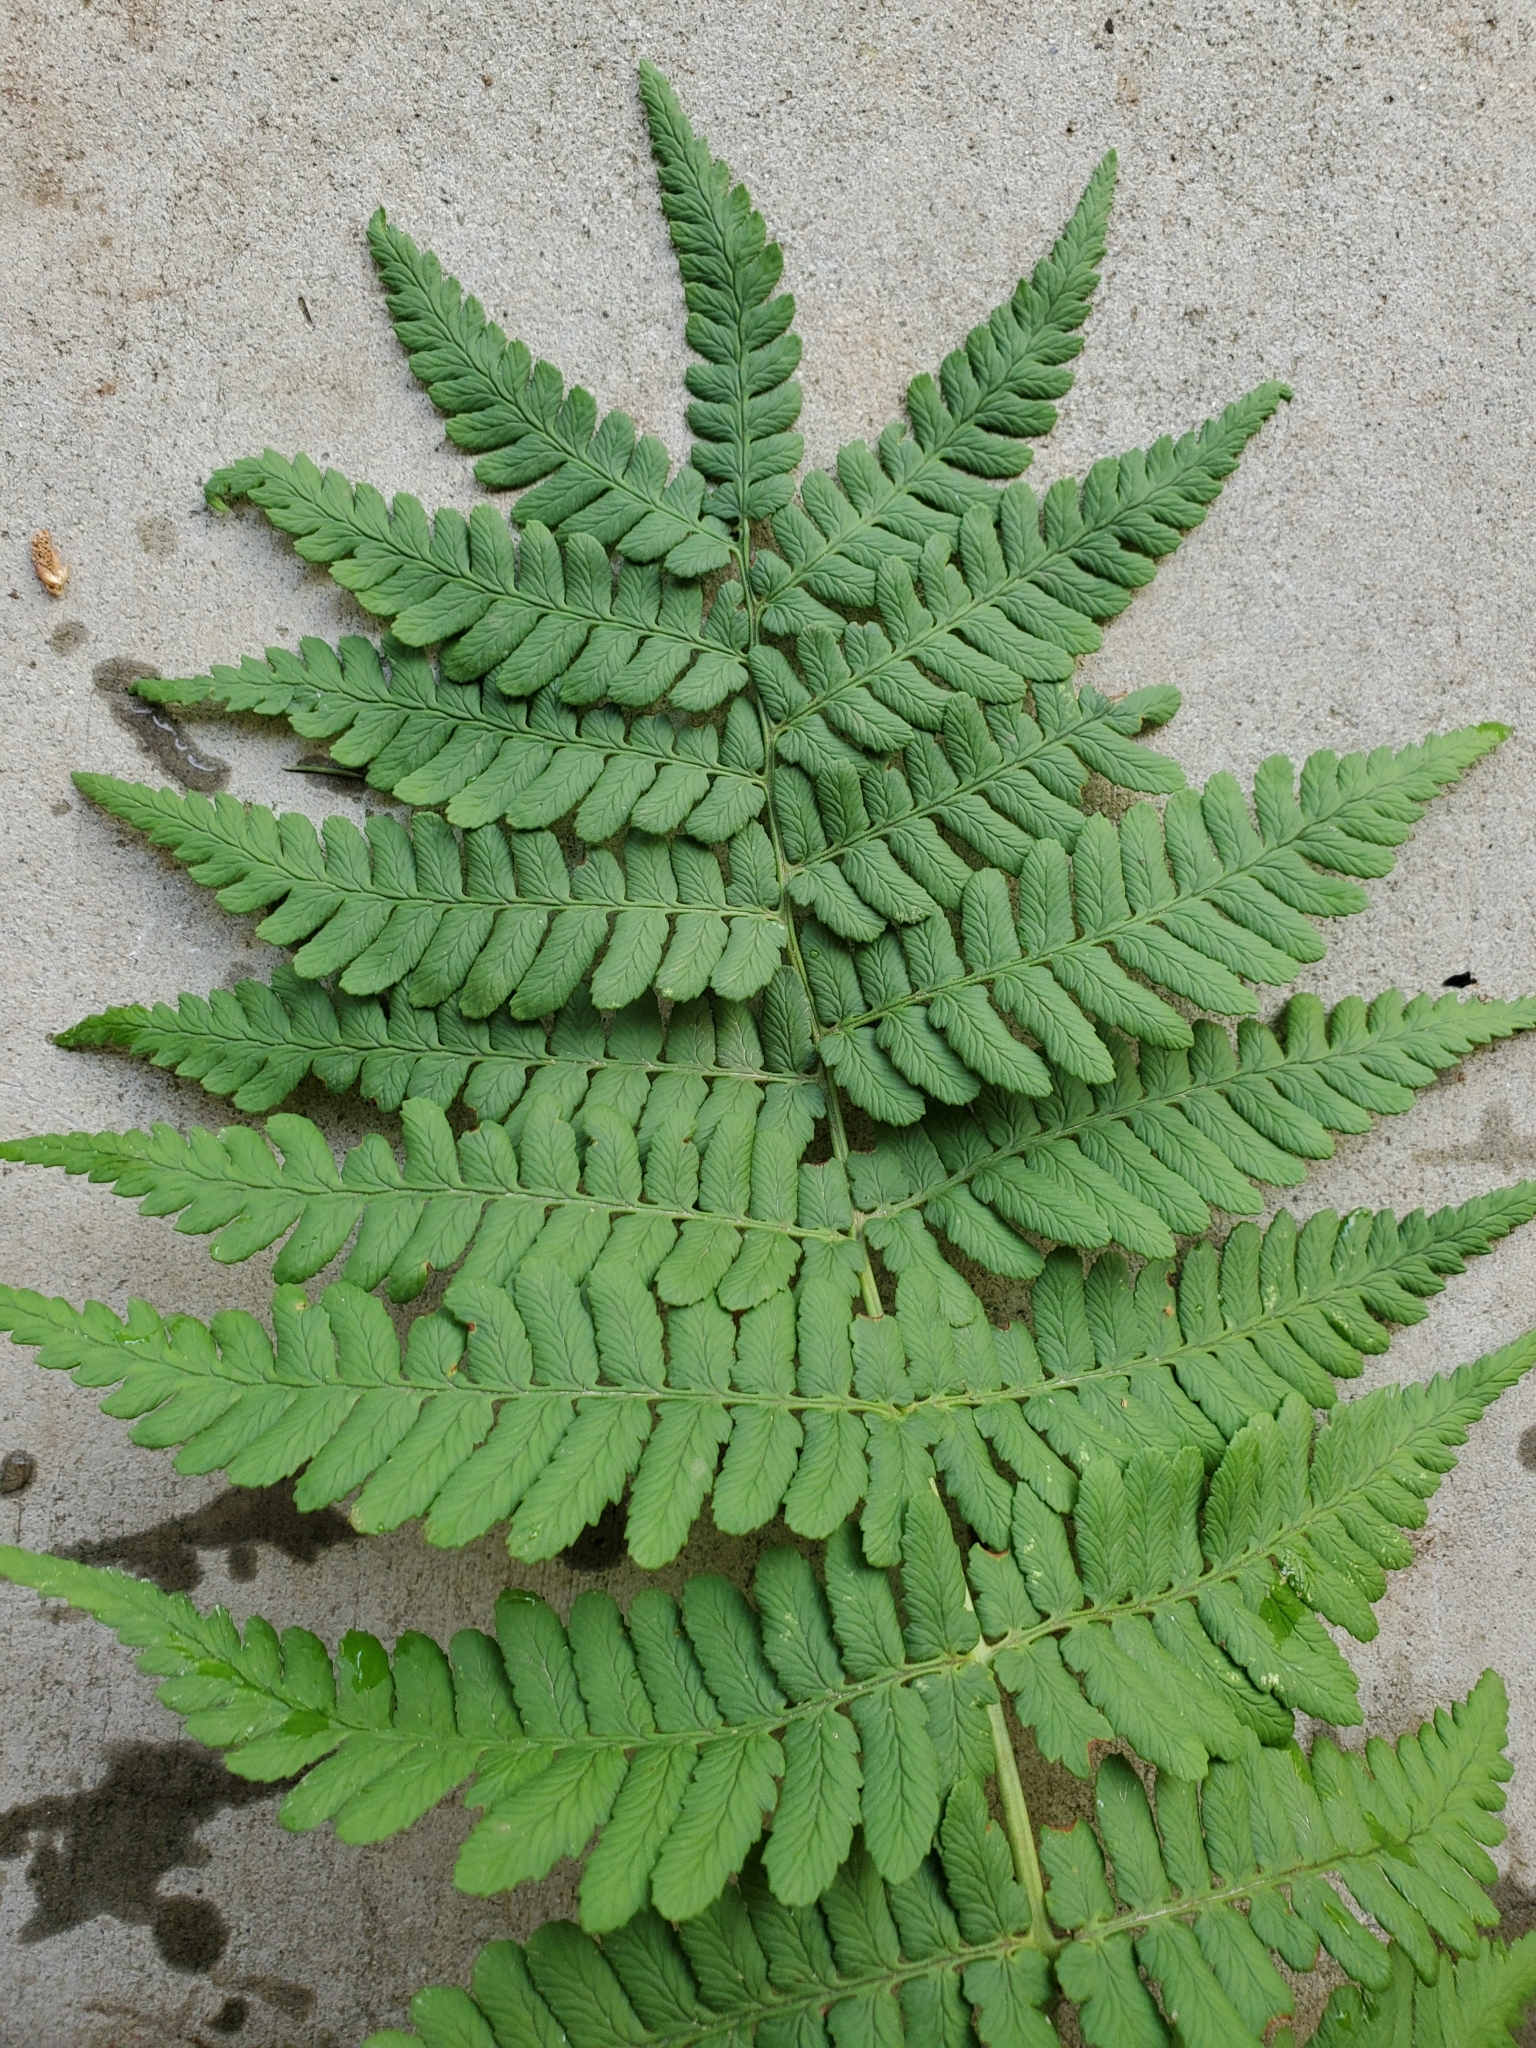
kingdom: Plantae
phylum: Tracheophyta
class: Polypodiopsida
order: Polypodiales
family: Dryopteridaceae
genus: Dryopteris
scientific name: Dryopteris marginalis
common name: Marginal wood fern
